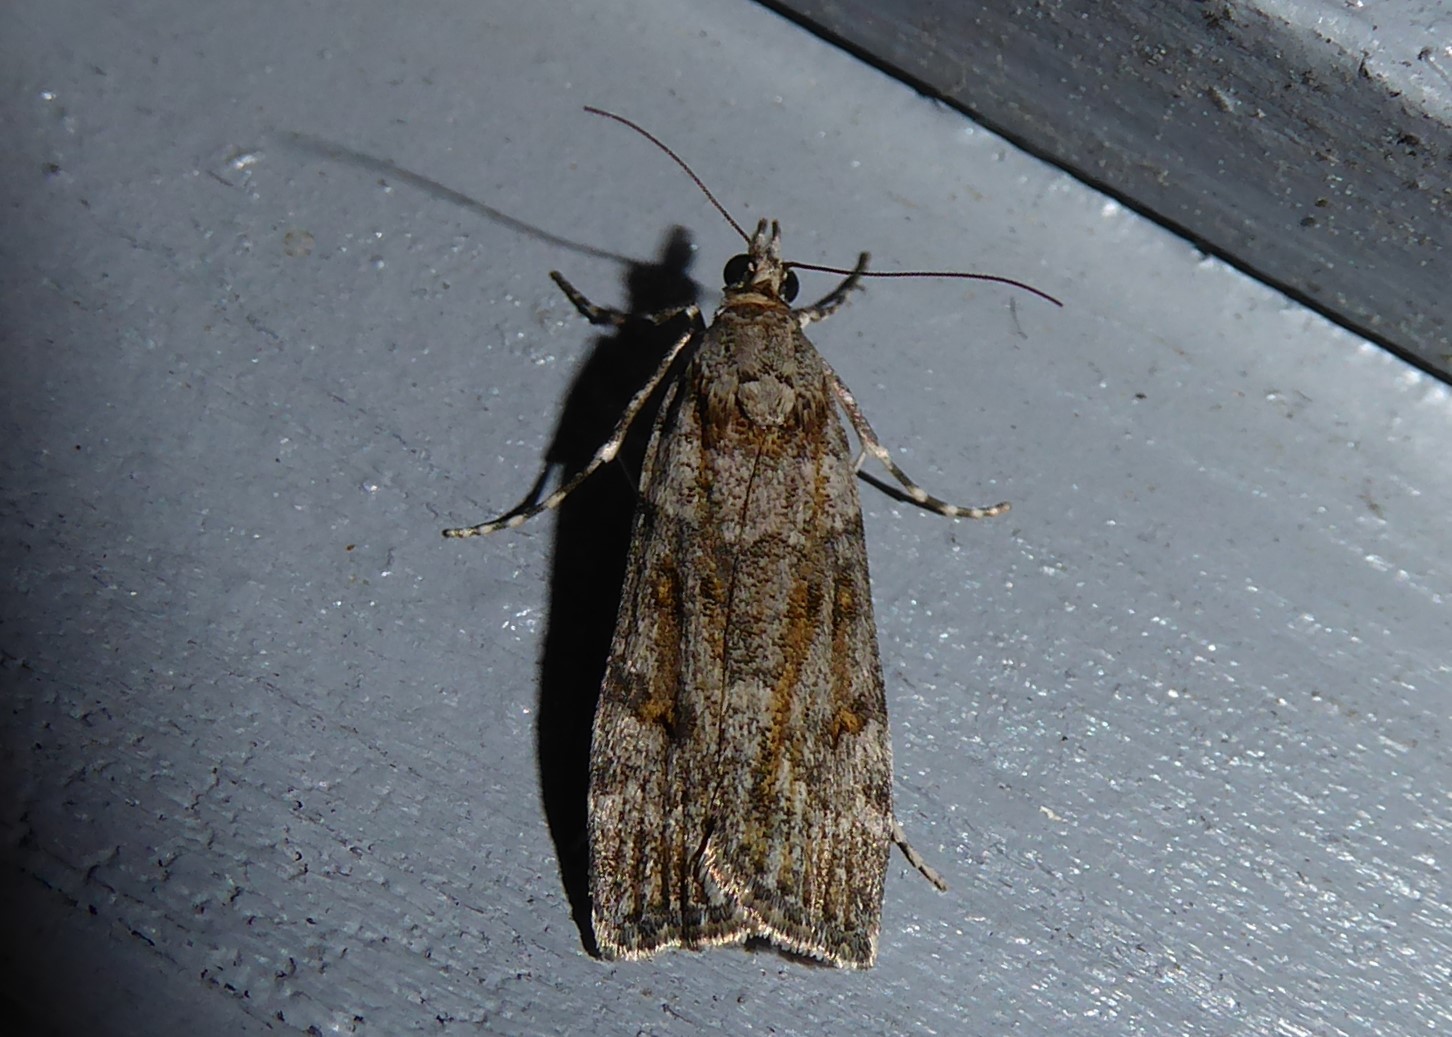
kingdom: Animalia
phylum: Arthropoda
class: Insecta
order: Lepidoptera
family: Crambidae
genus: Eudonia
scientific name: Eudonia diphtheralis
